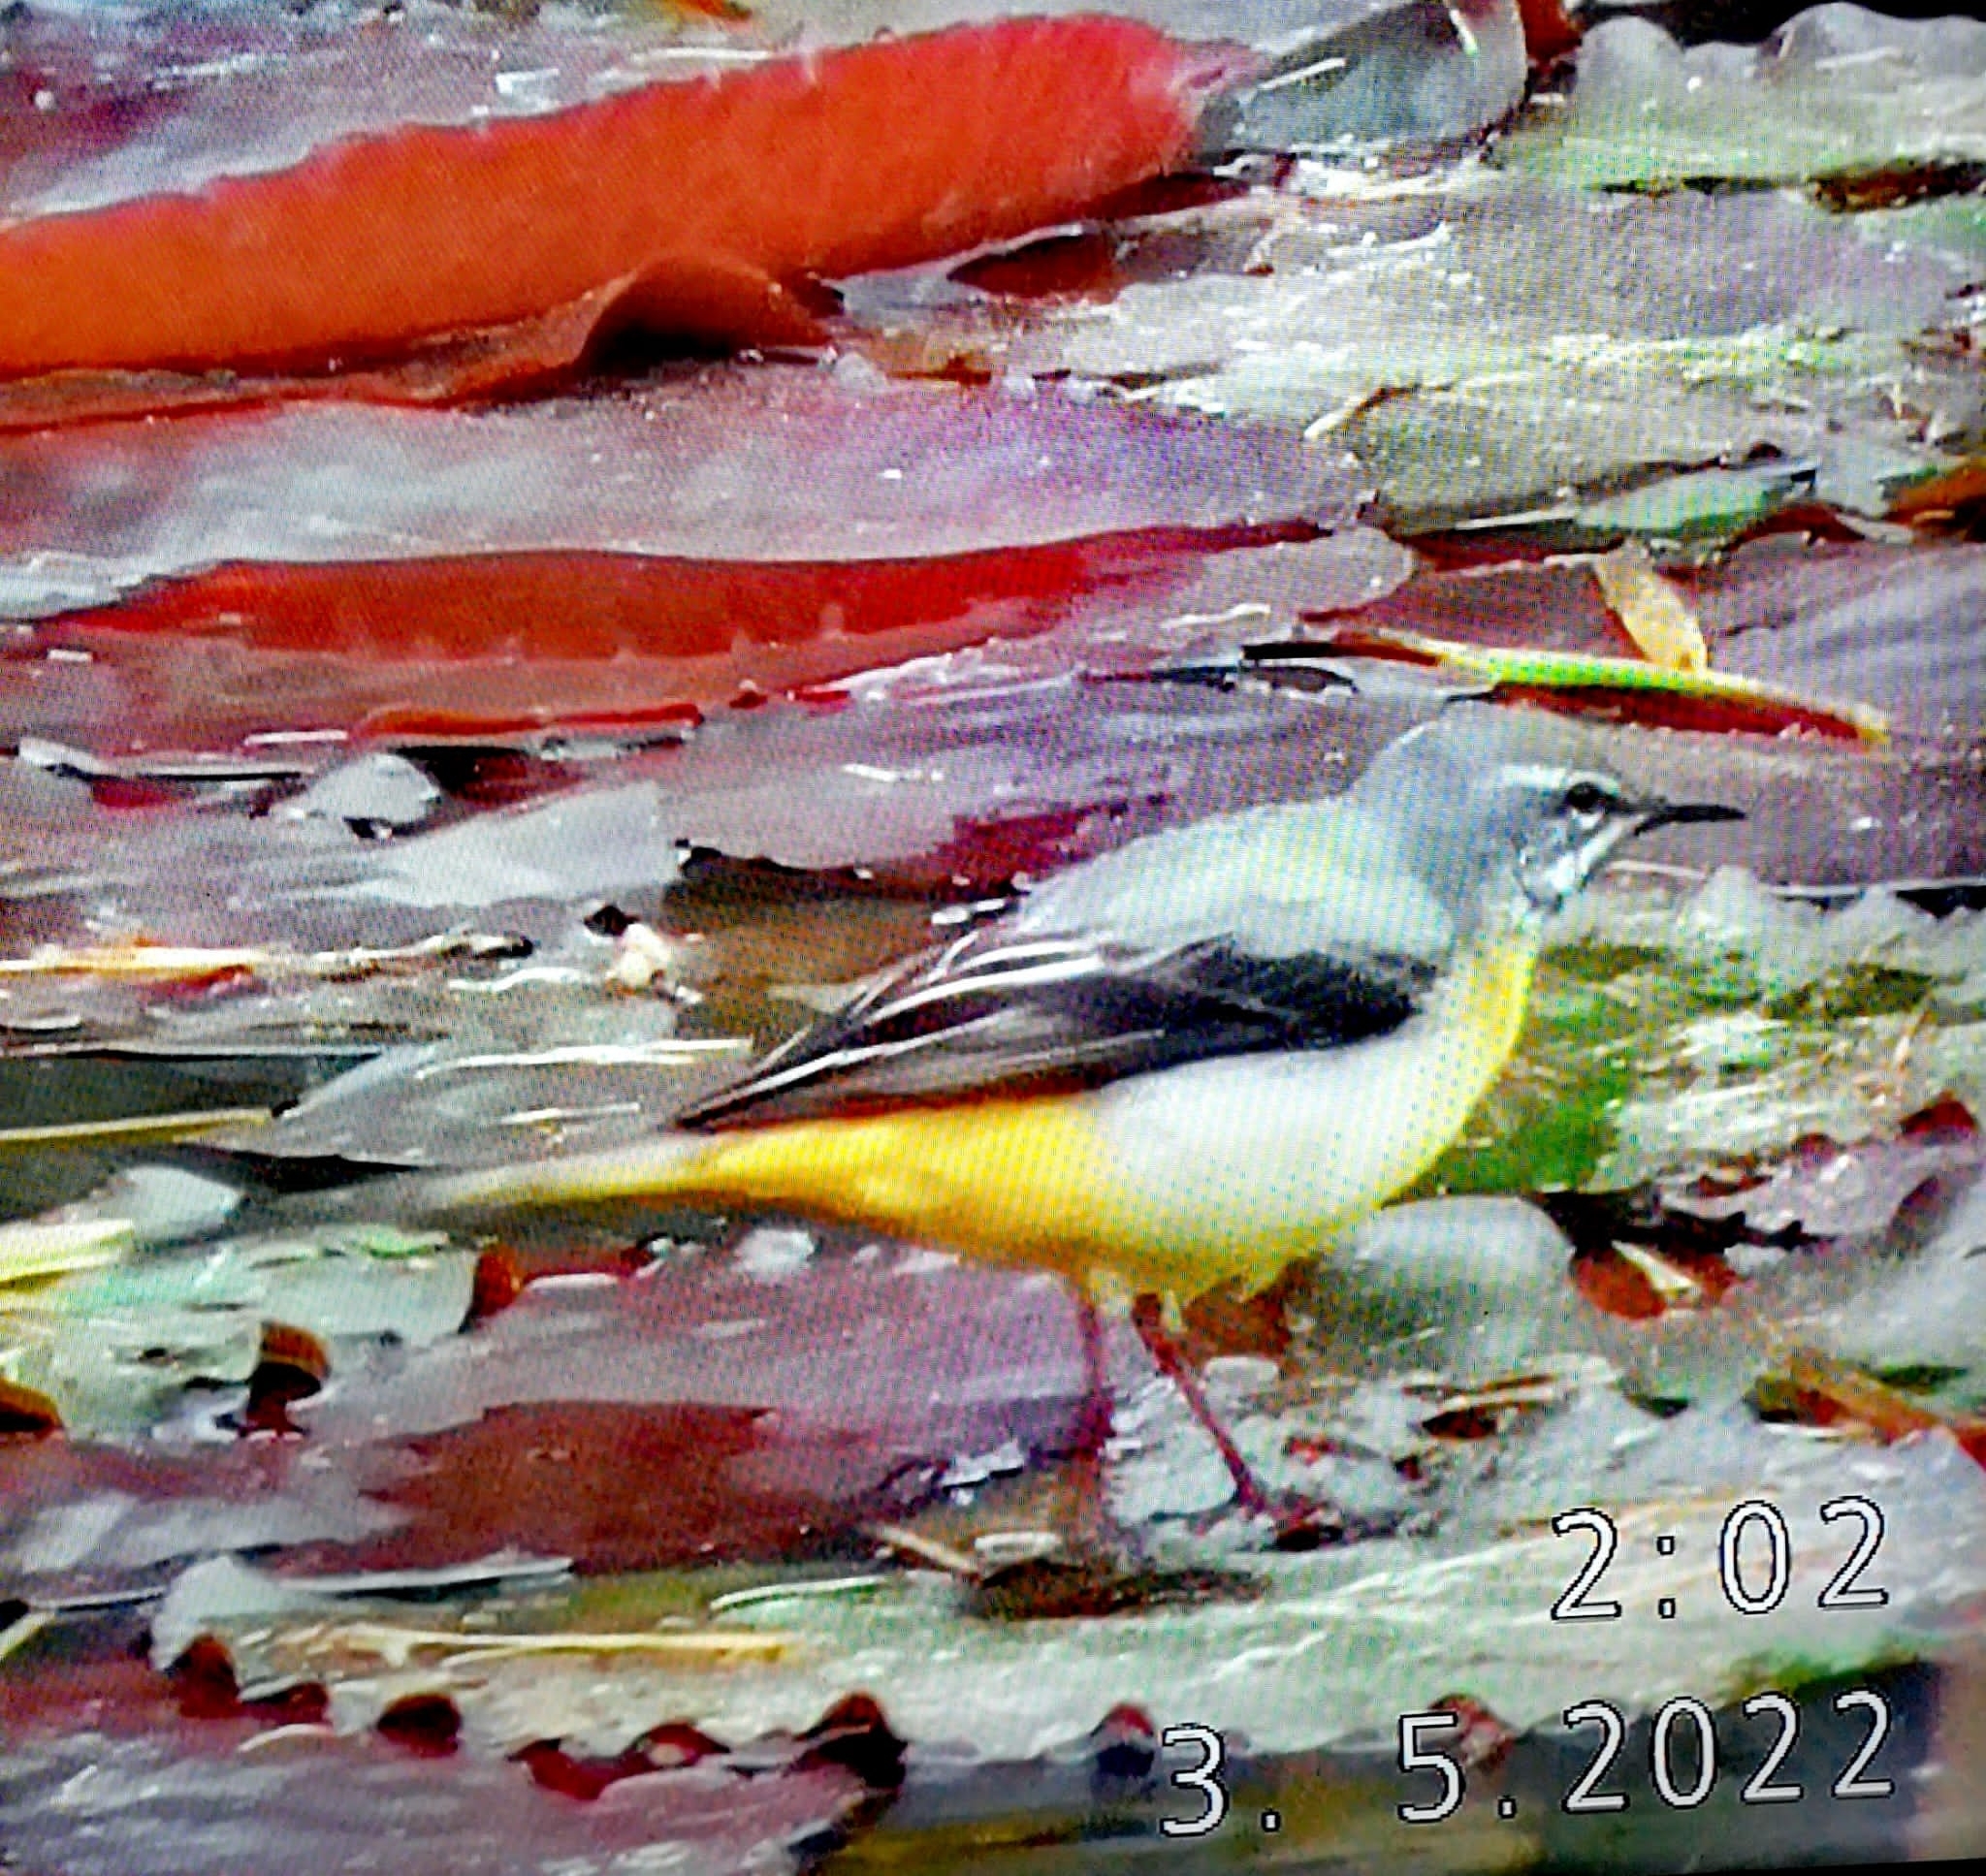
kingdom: Animalia
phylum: Chordata
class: Aves
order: Passeriformes
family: Motacillidae
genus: Motacilla
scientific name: Motacilla cinerea
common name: Grey wagtail
